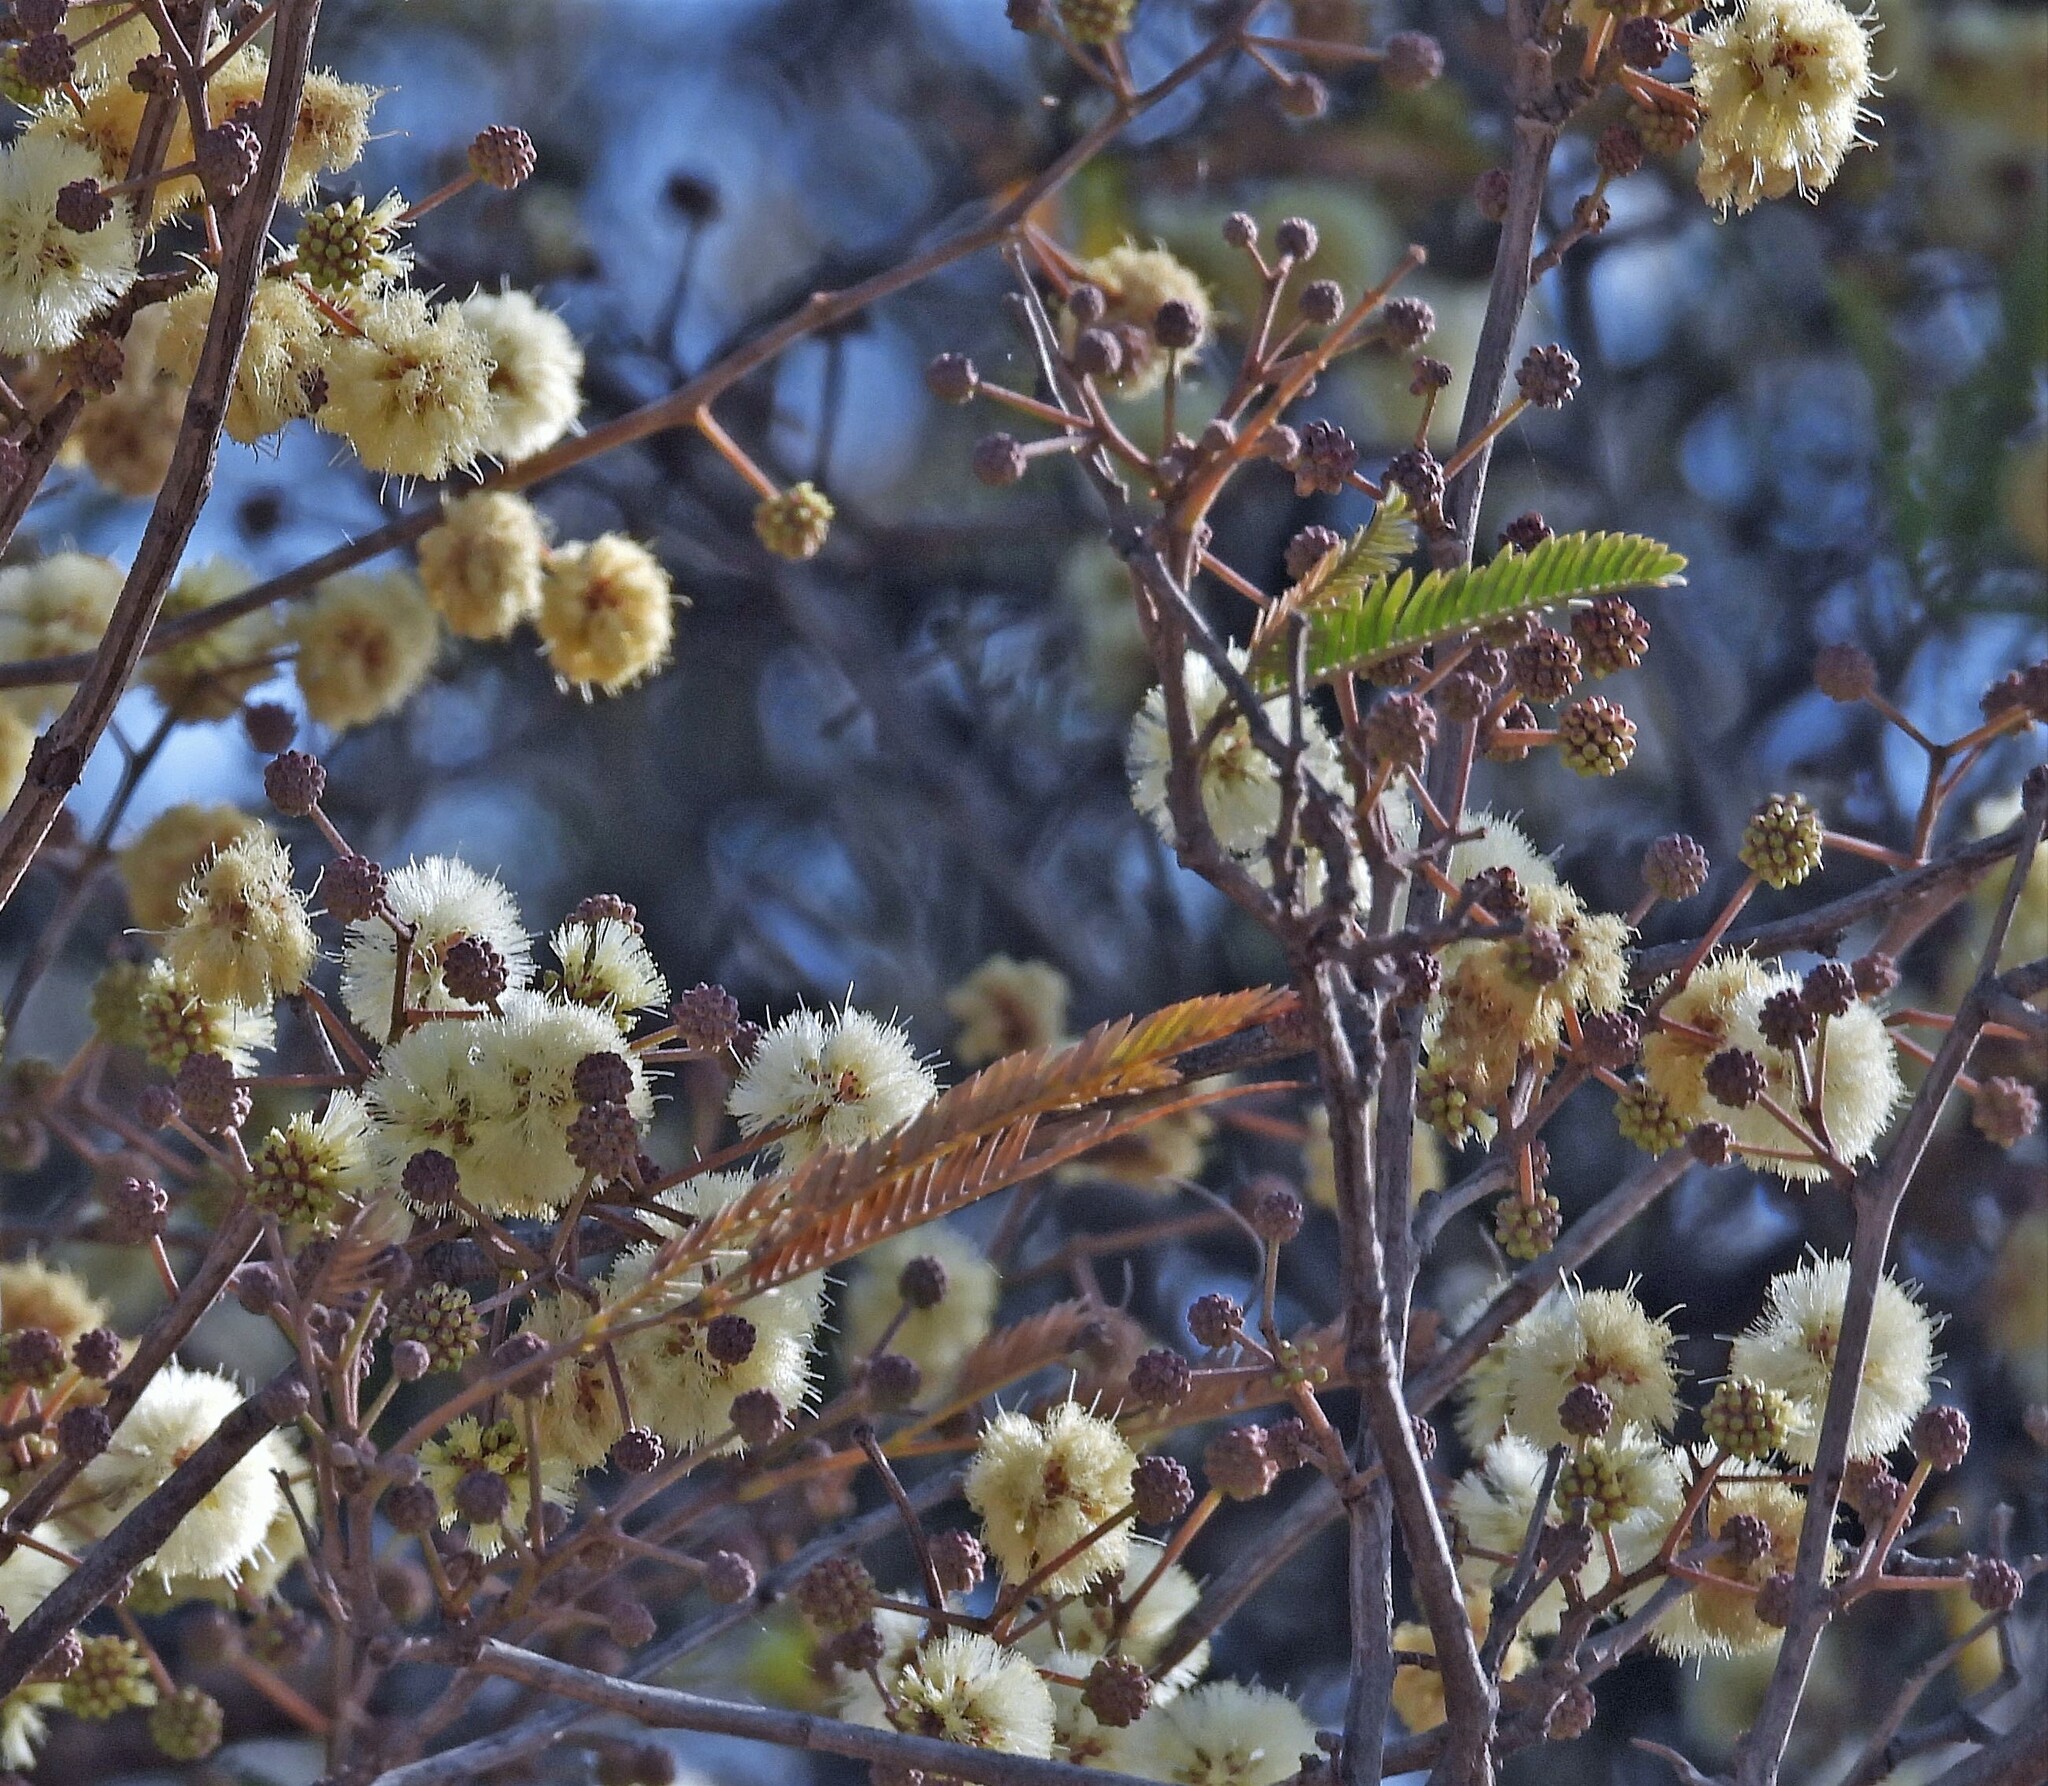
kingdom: Plantae
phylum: Tracheophyta
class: Magnoliopsida
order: Fabales
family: Fabaceae
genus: Senegalia
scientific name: Senegalia praecox
